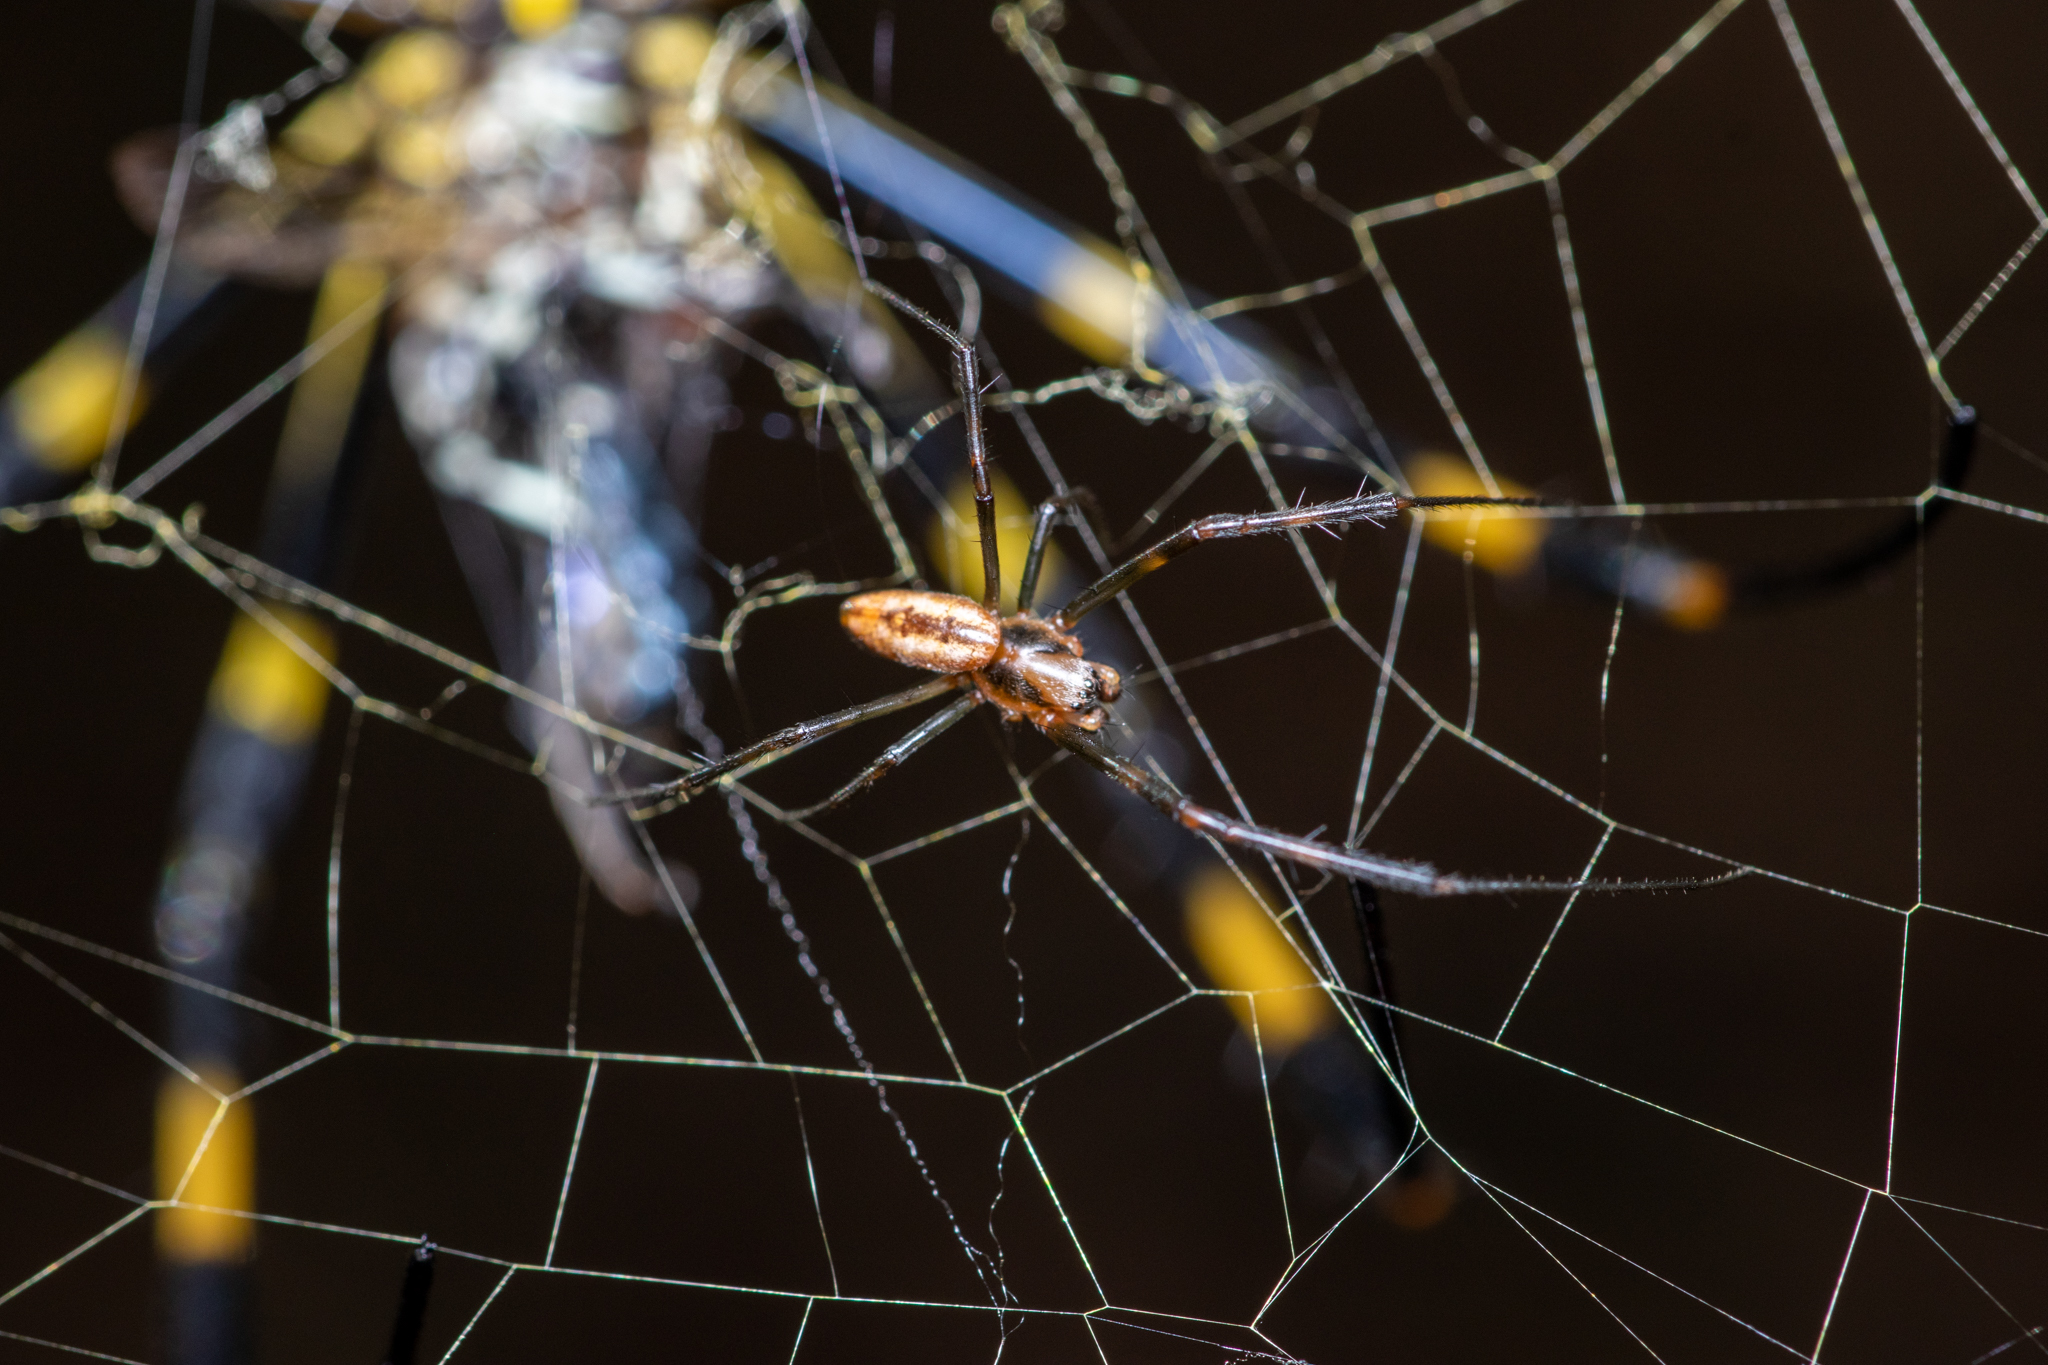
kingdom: Animalia
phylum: Arthropoda
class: Arachnida
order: Araneae
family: Araneidae
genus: Trichonephila
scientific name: Trichonephila clavata
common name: Jorō spider
